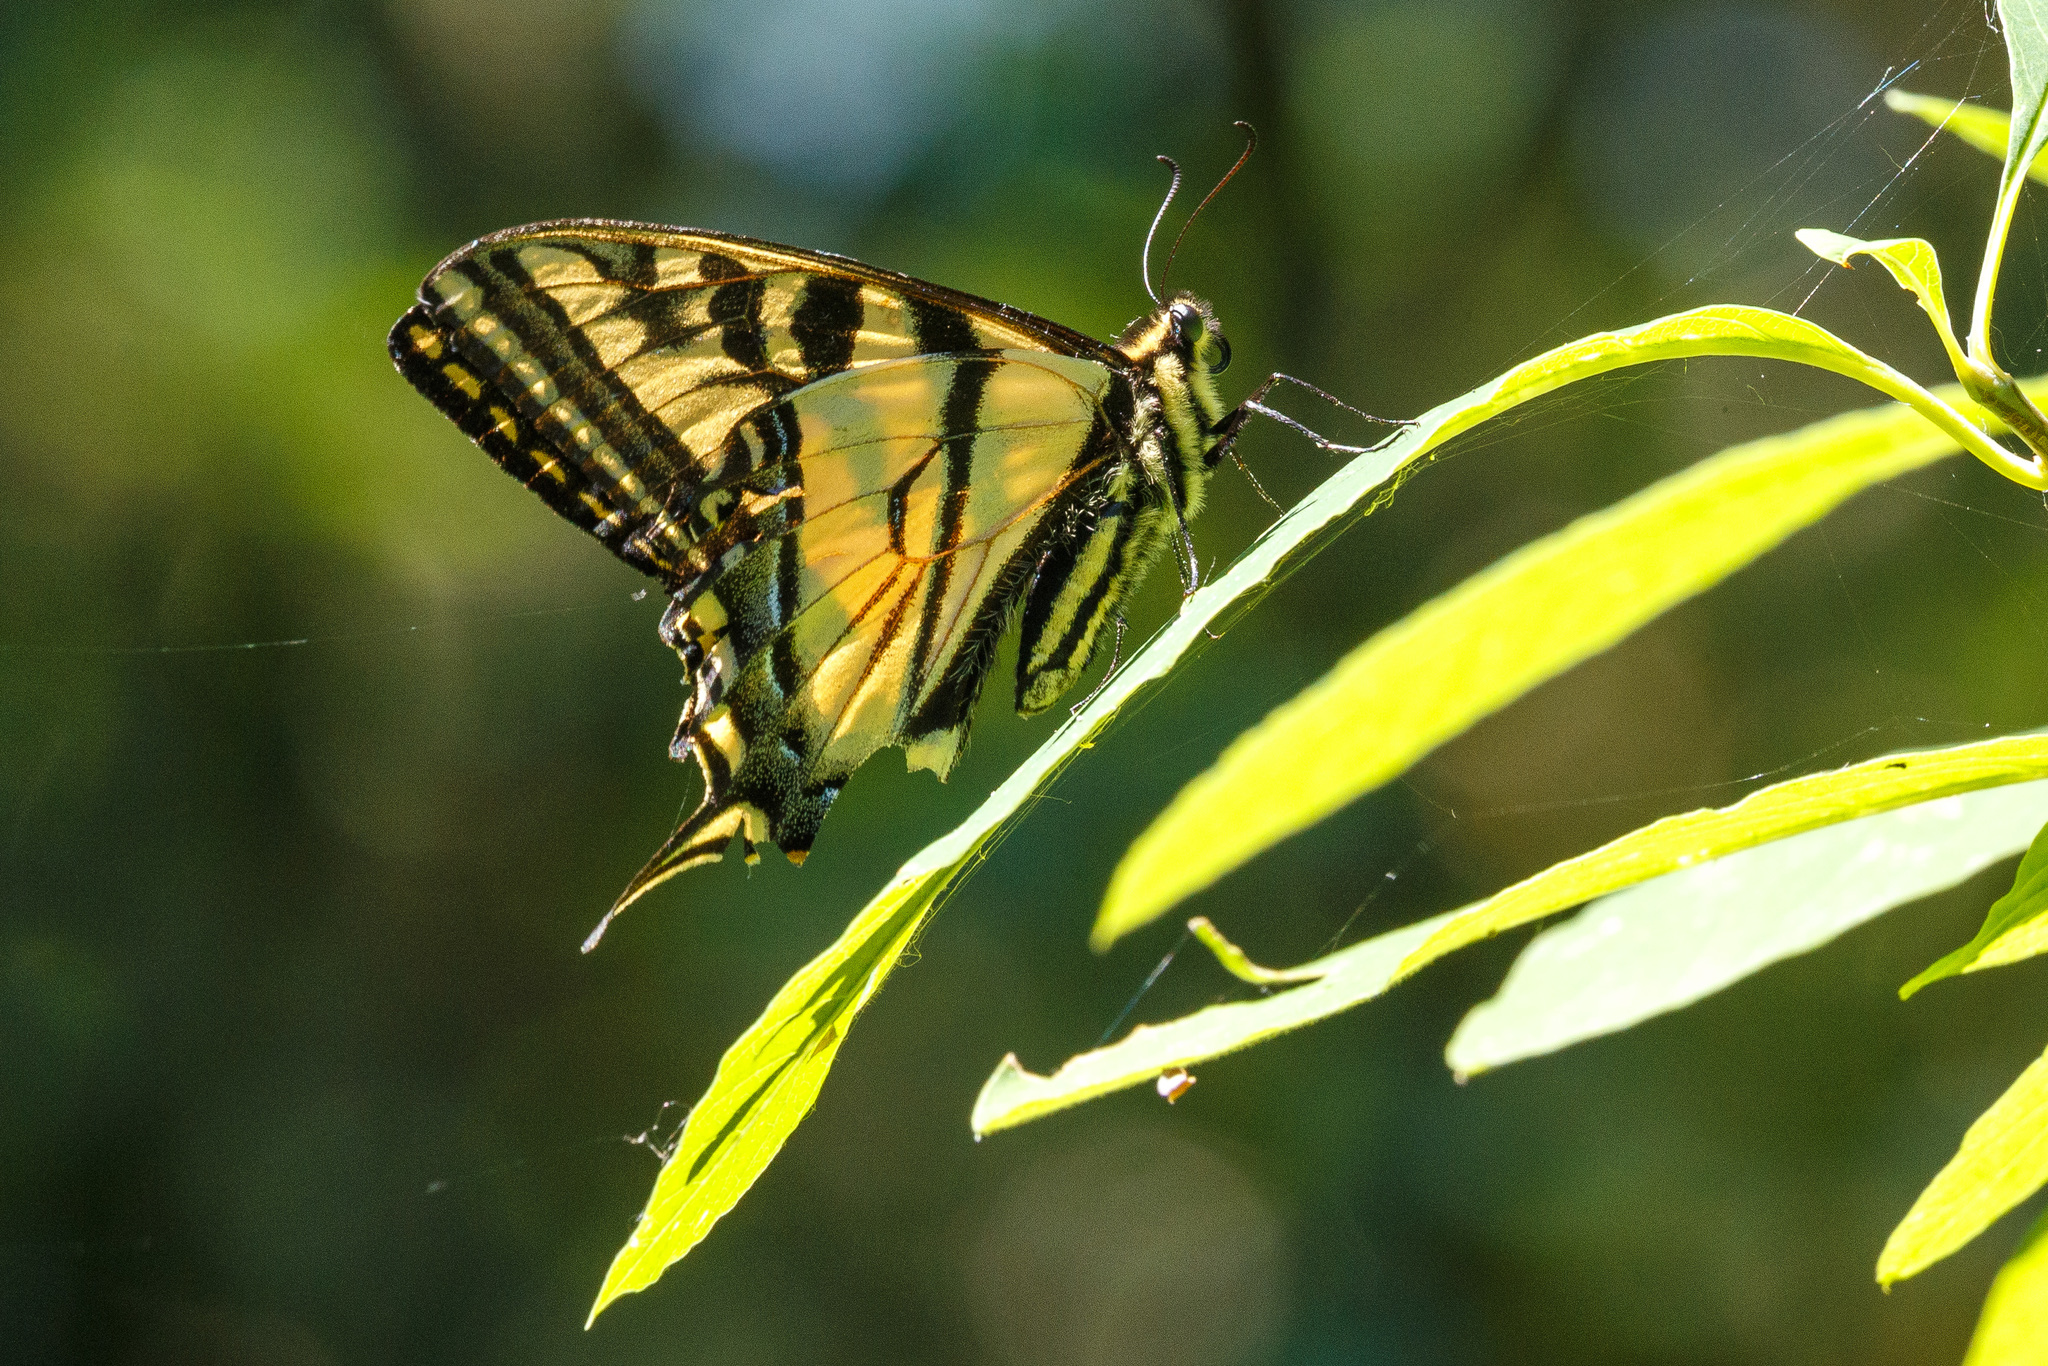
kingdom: Animalia
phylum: Arthropoda
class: Insecta
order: Lepidoptera
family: Papilionidae
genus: Papilio
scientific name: Papilio rutulus
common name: Western tiger swallowtail
